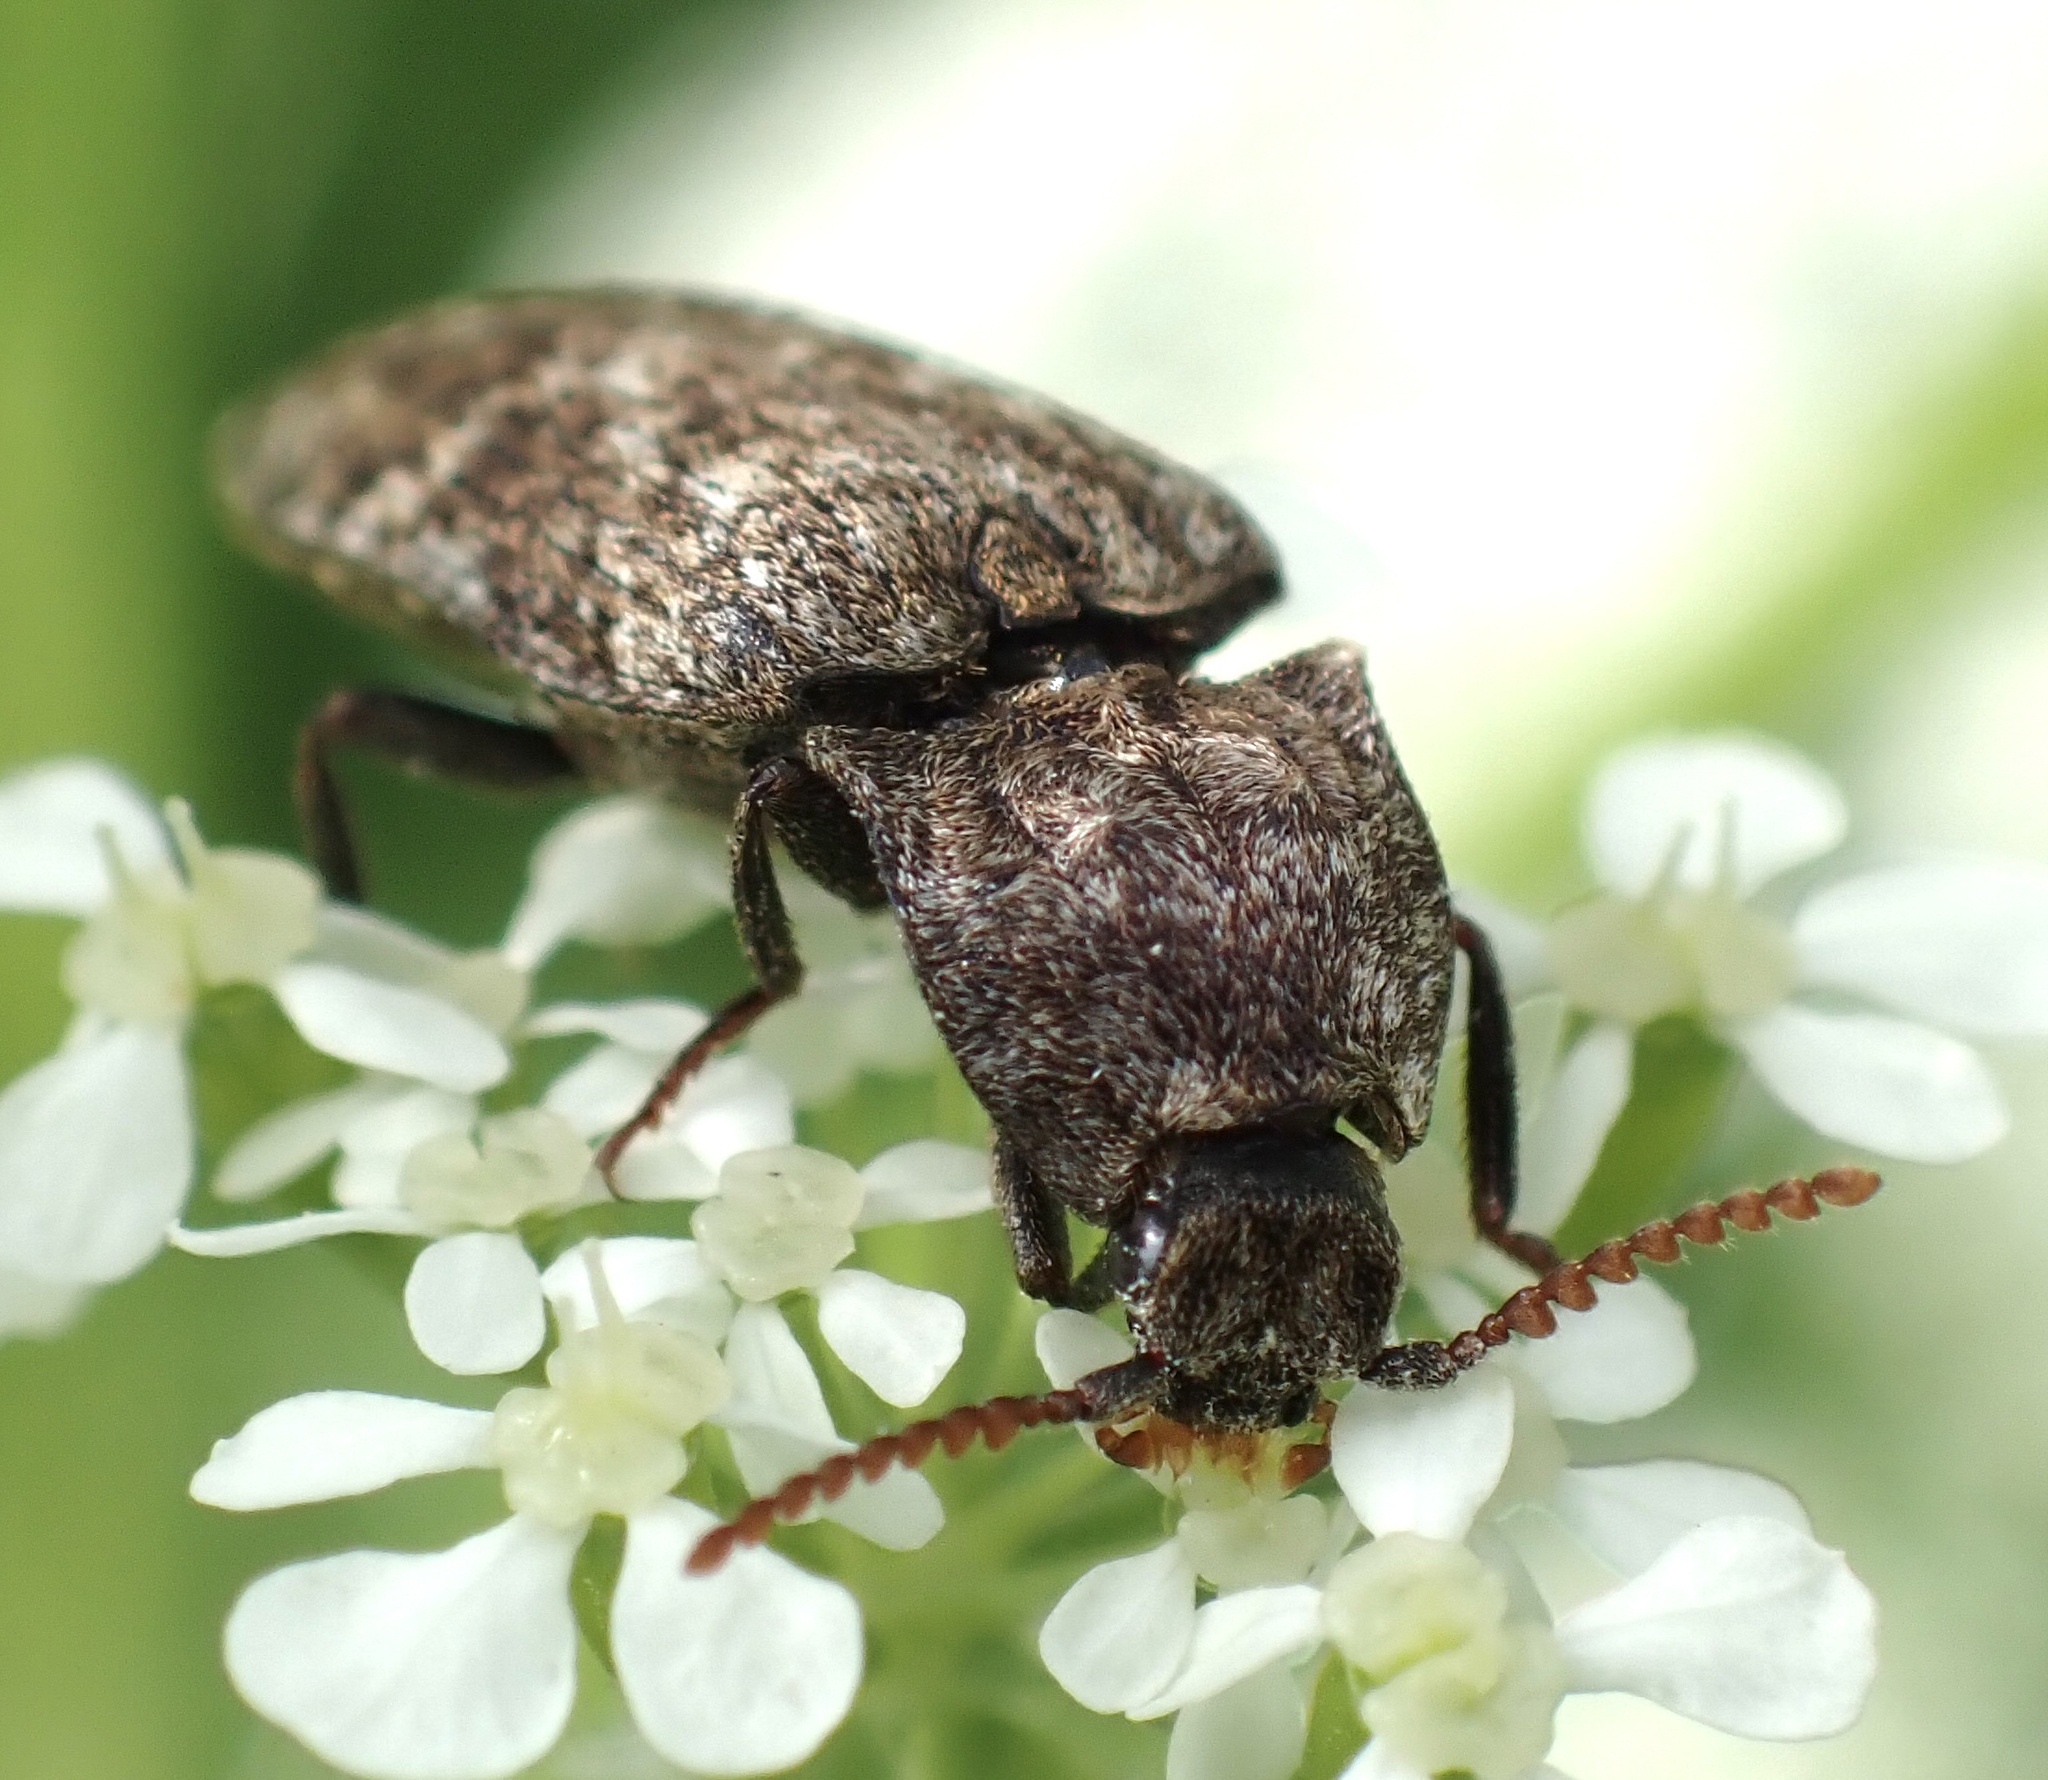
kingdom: Animalia
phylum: Arthropoda
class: Insecta
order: Coleoptera
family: Elateridae
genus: Agrypnus
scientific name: Agrypnus murinus
